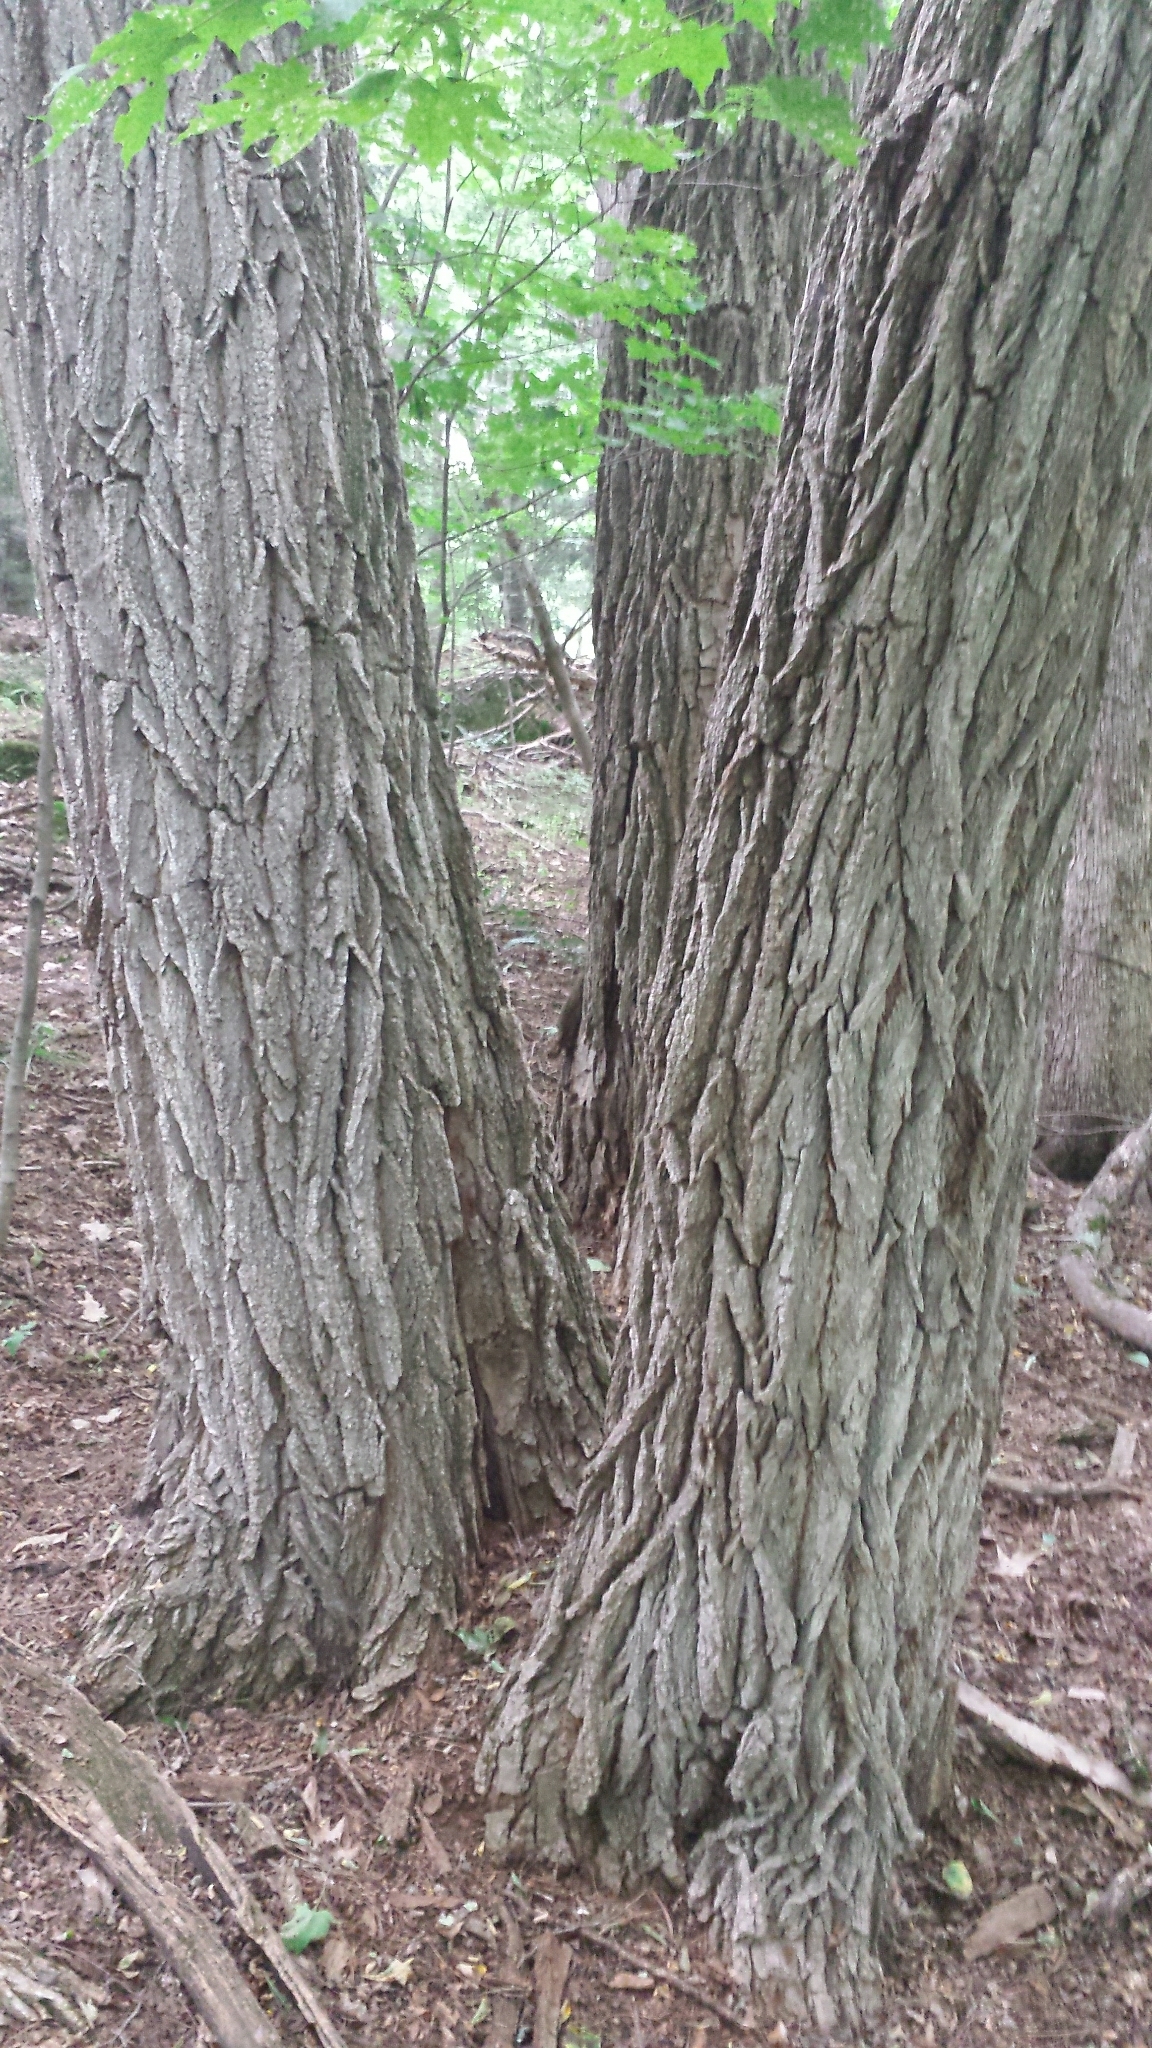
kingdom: Plantae
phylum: Tracheophyta
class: Magnoliopsida
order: Fabales
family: Fabaceae
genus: Robinia
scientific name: Robinia pseudoacacia
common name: Black locust
